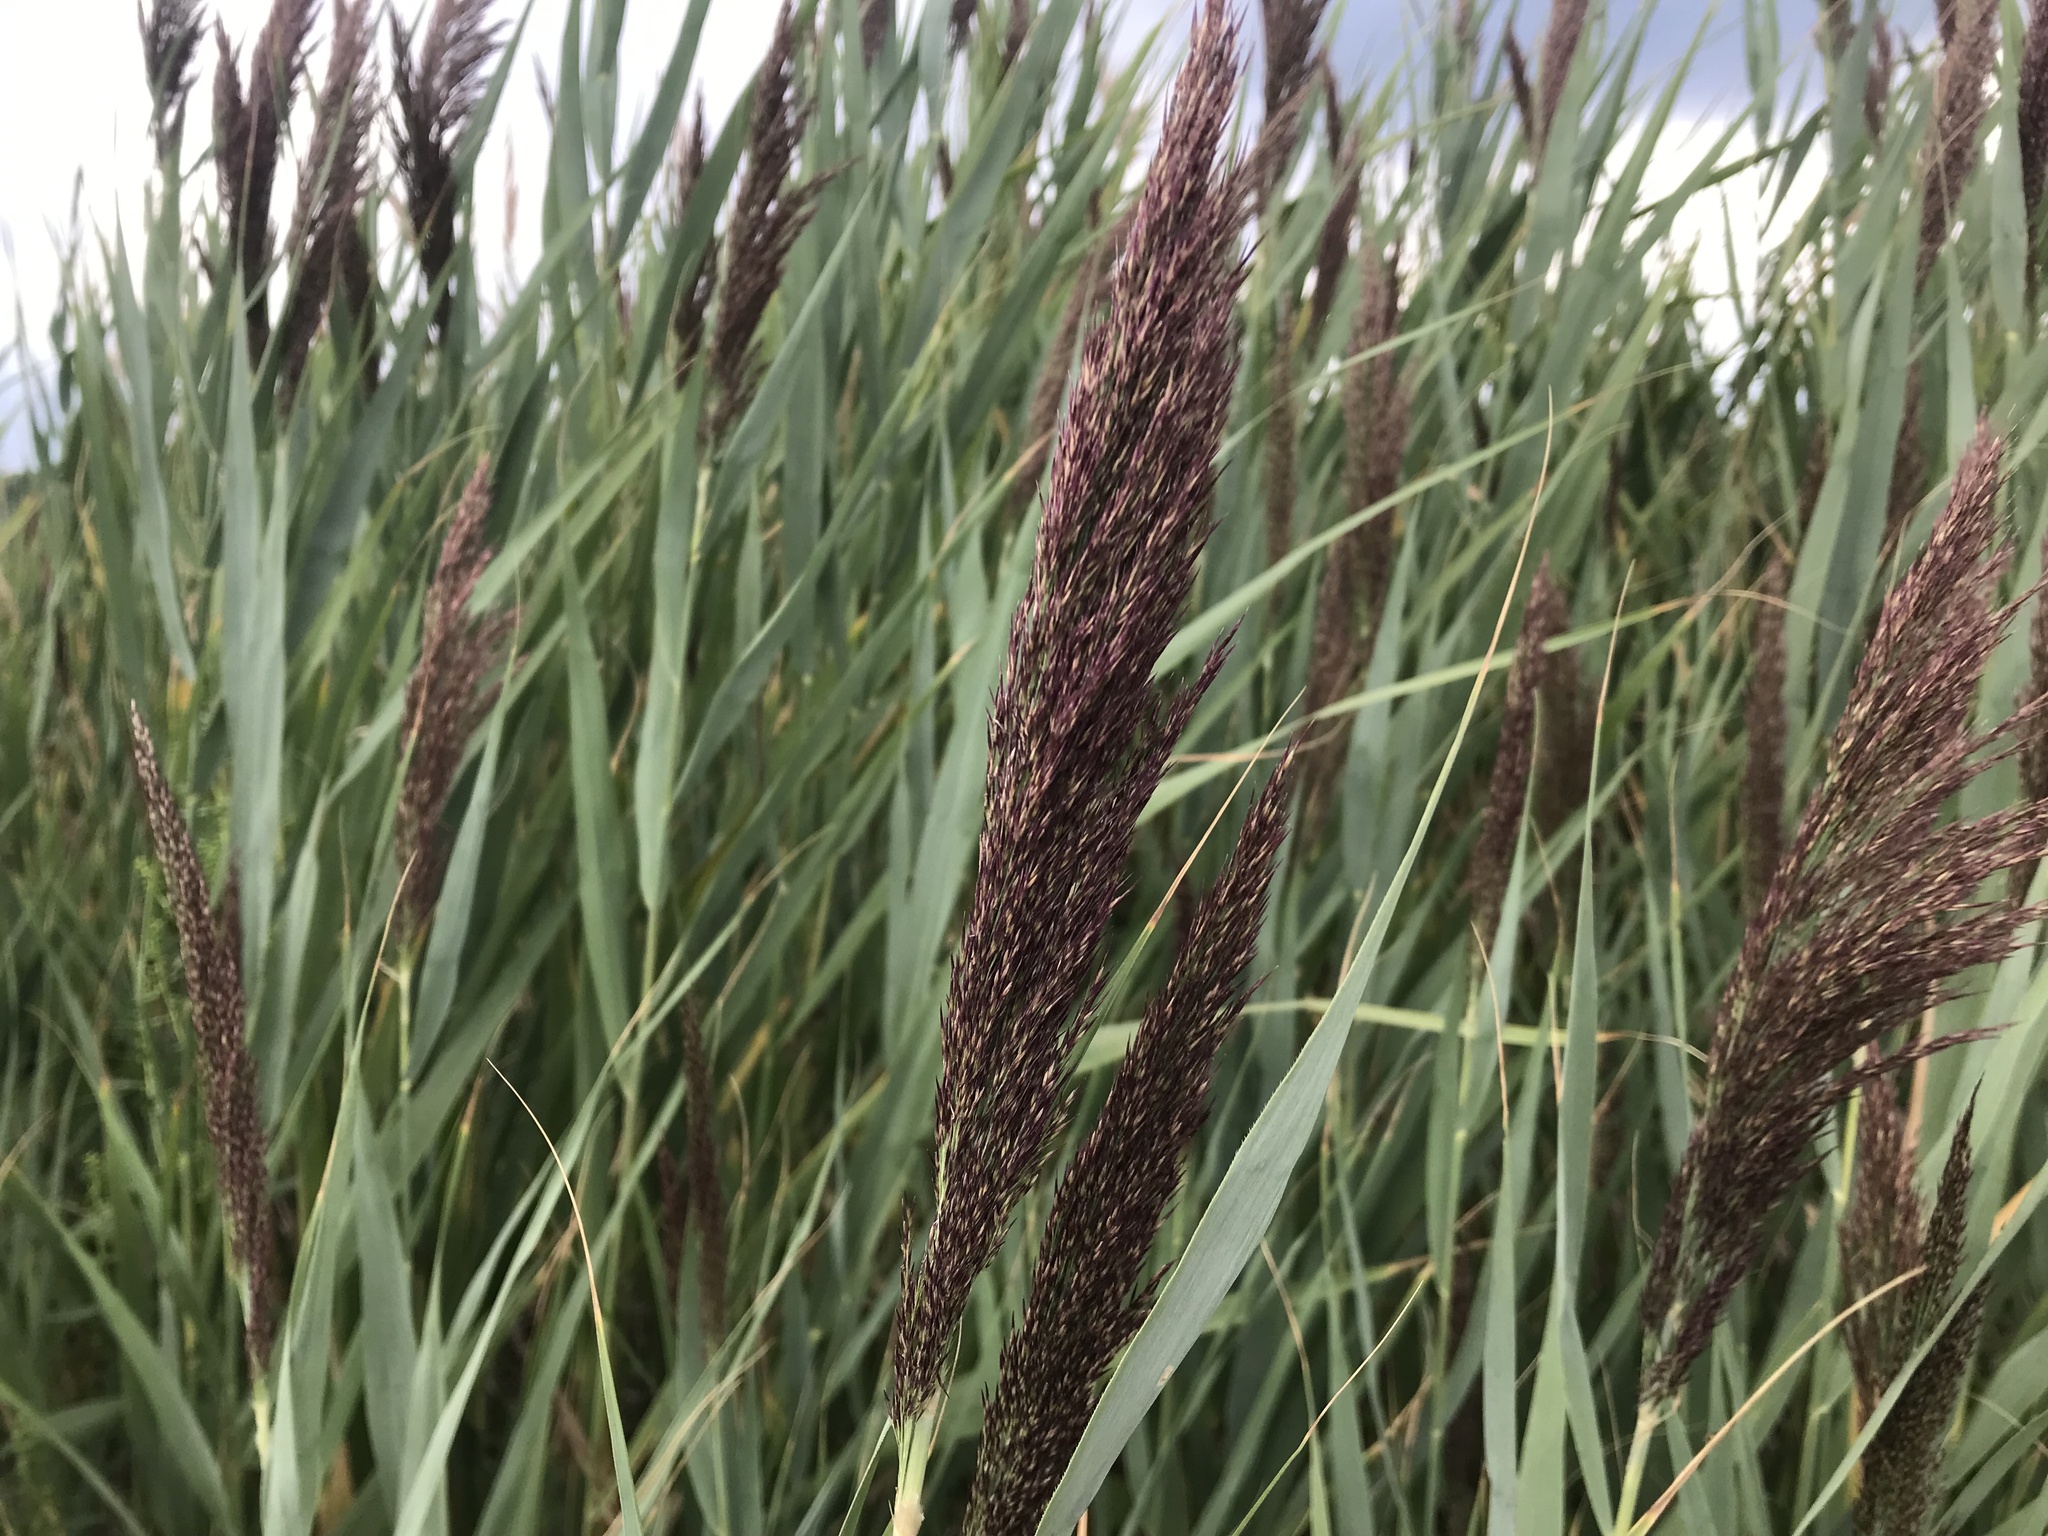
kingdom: Plantae
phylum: Tracheophyta
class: Liliopsida
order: Poales
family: Poaceae
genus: Phragmites
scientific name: Phragmites australis
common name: Common reed
